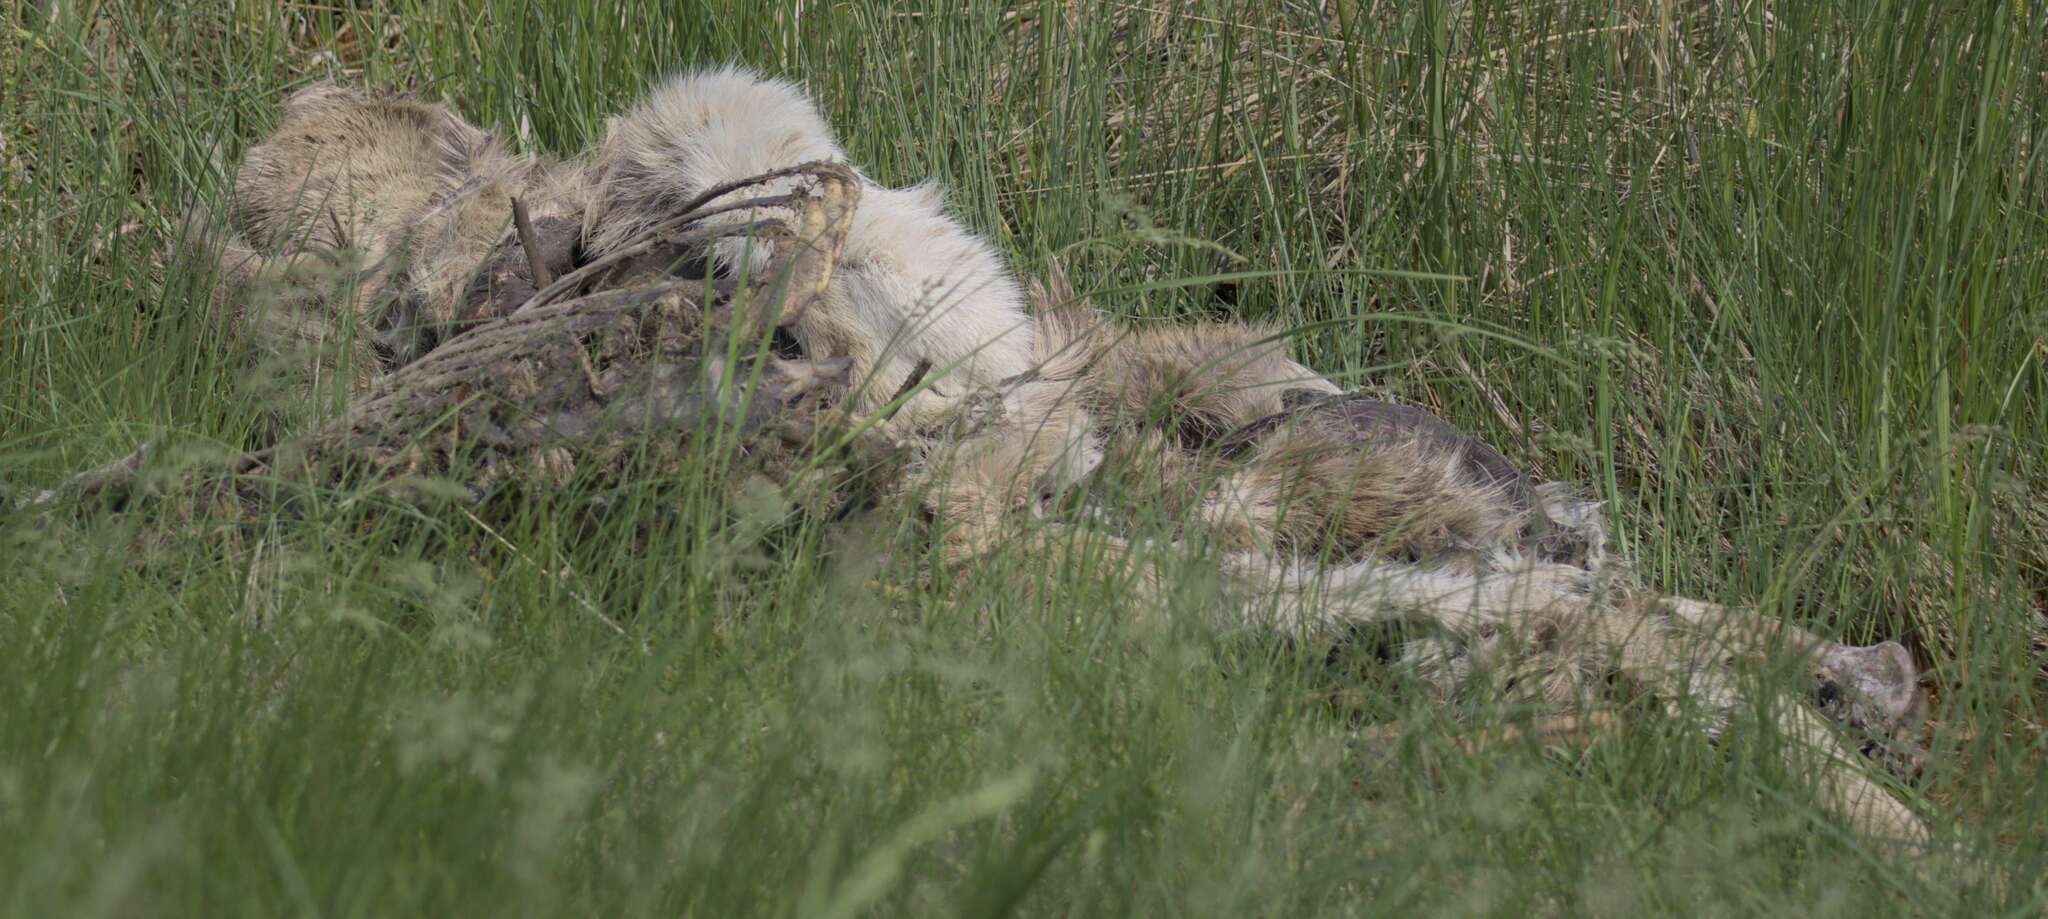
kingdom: Animalia
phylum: Chordata
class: Mammalia
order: Artiodactyla
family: Cervidae
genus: Odocoileus
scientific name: Odocoileus virginianus
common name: White-tailed deer
